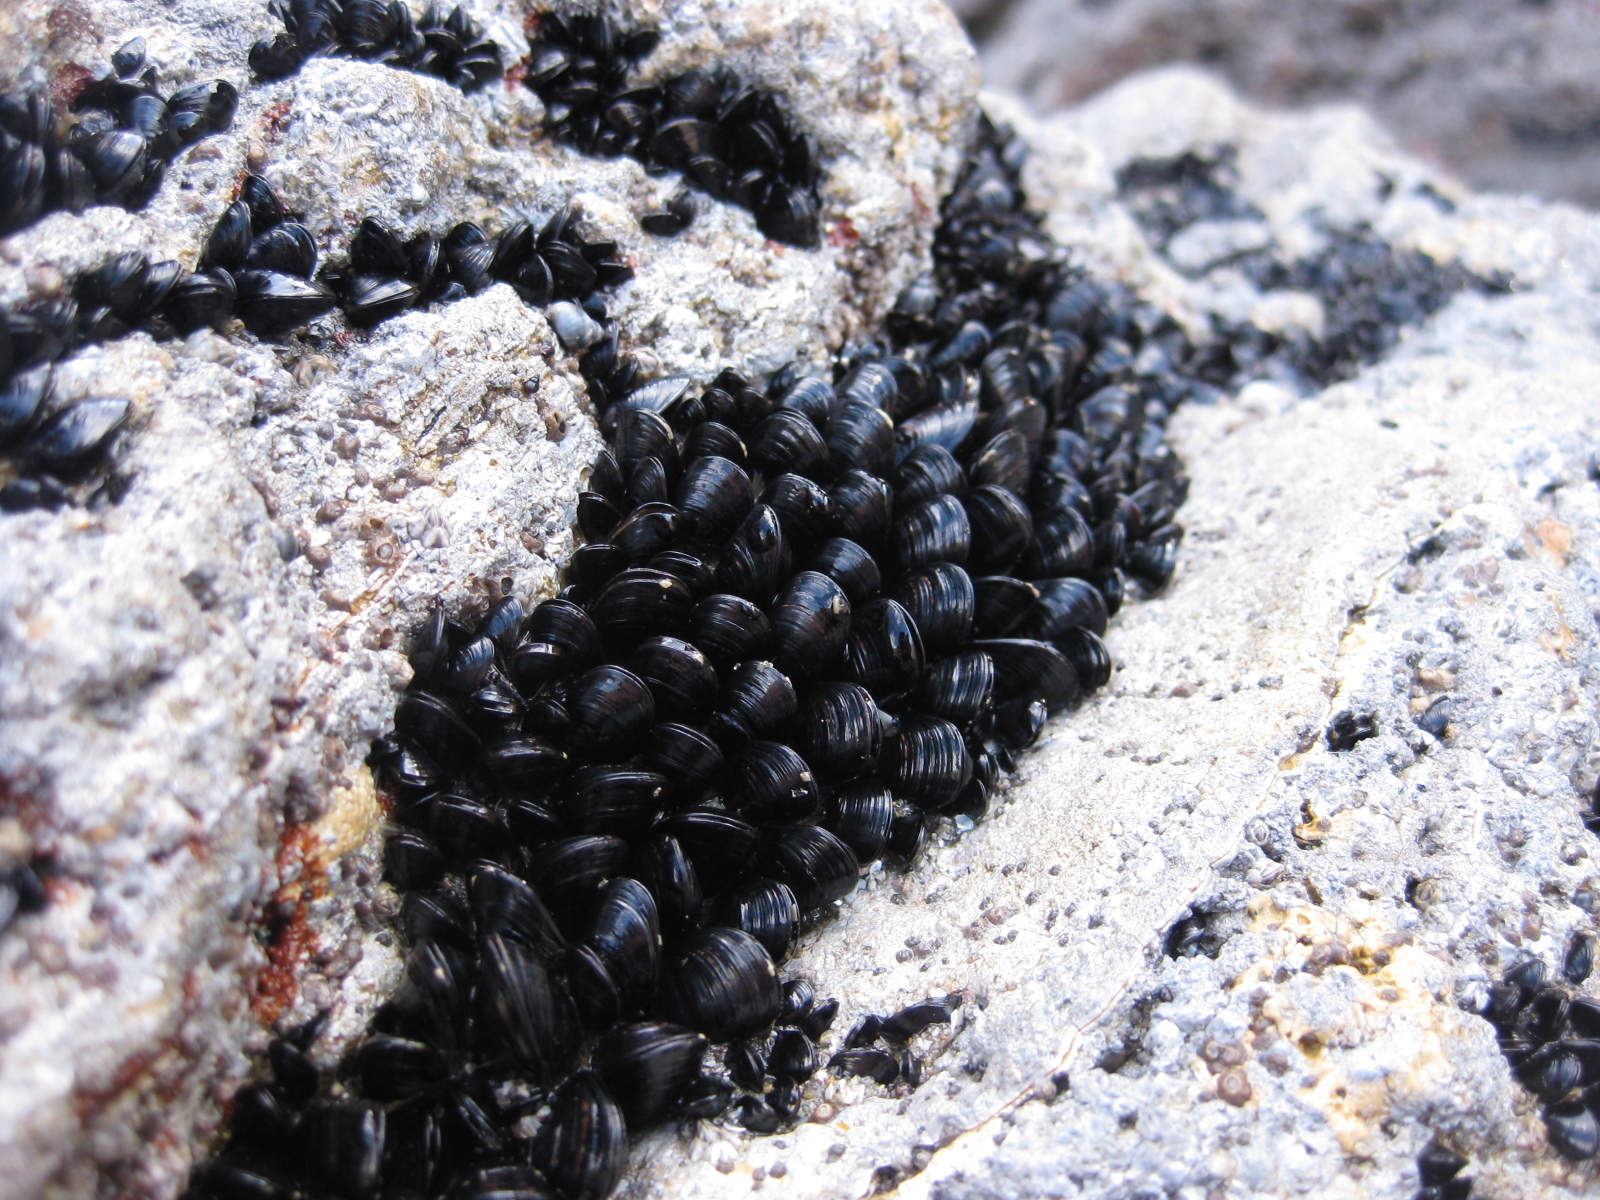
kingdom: Animalia
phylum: Mollusca
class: Bivalvia
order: Mytilida
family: Mytilidae
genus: Xenostrobus
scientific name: Xenostrobus neozelanicus
